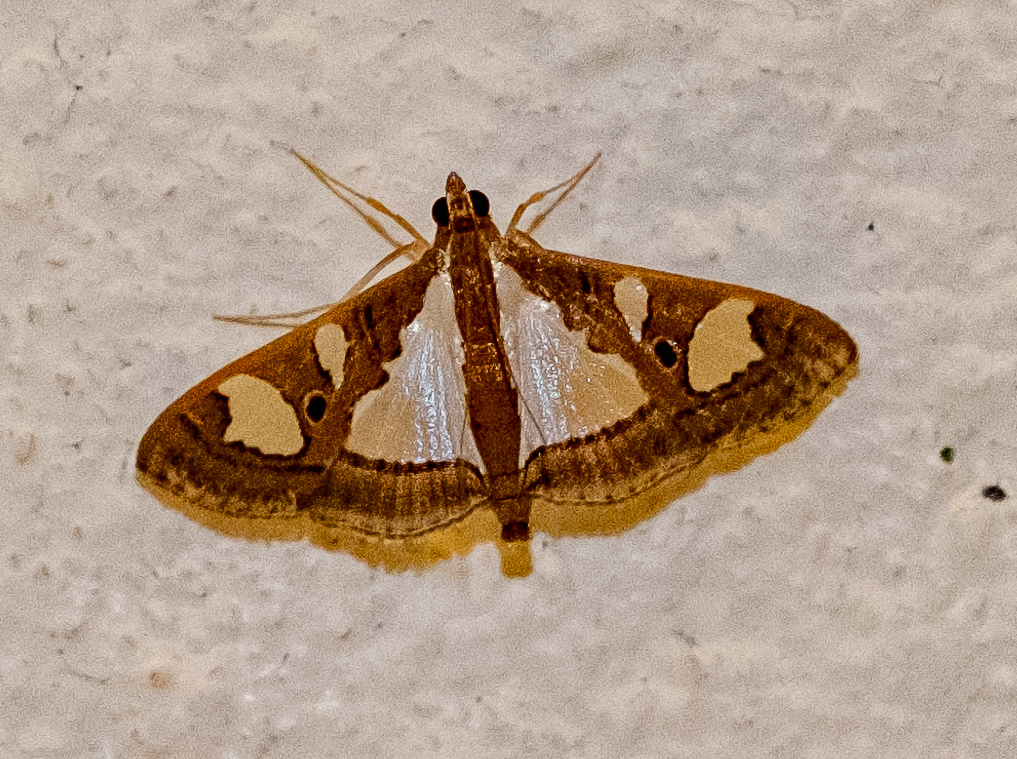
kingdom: Animalia
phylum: Arthropoda
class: Insecta
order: Lepidoptera
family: Crambidae
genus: Glyphodes
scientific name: Glyphodes bivitralis
